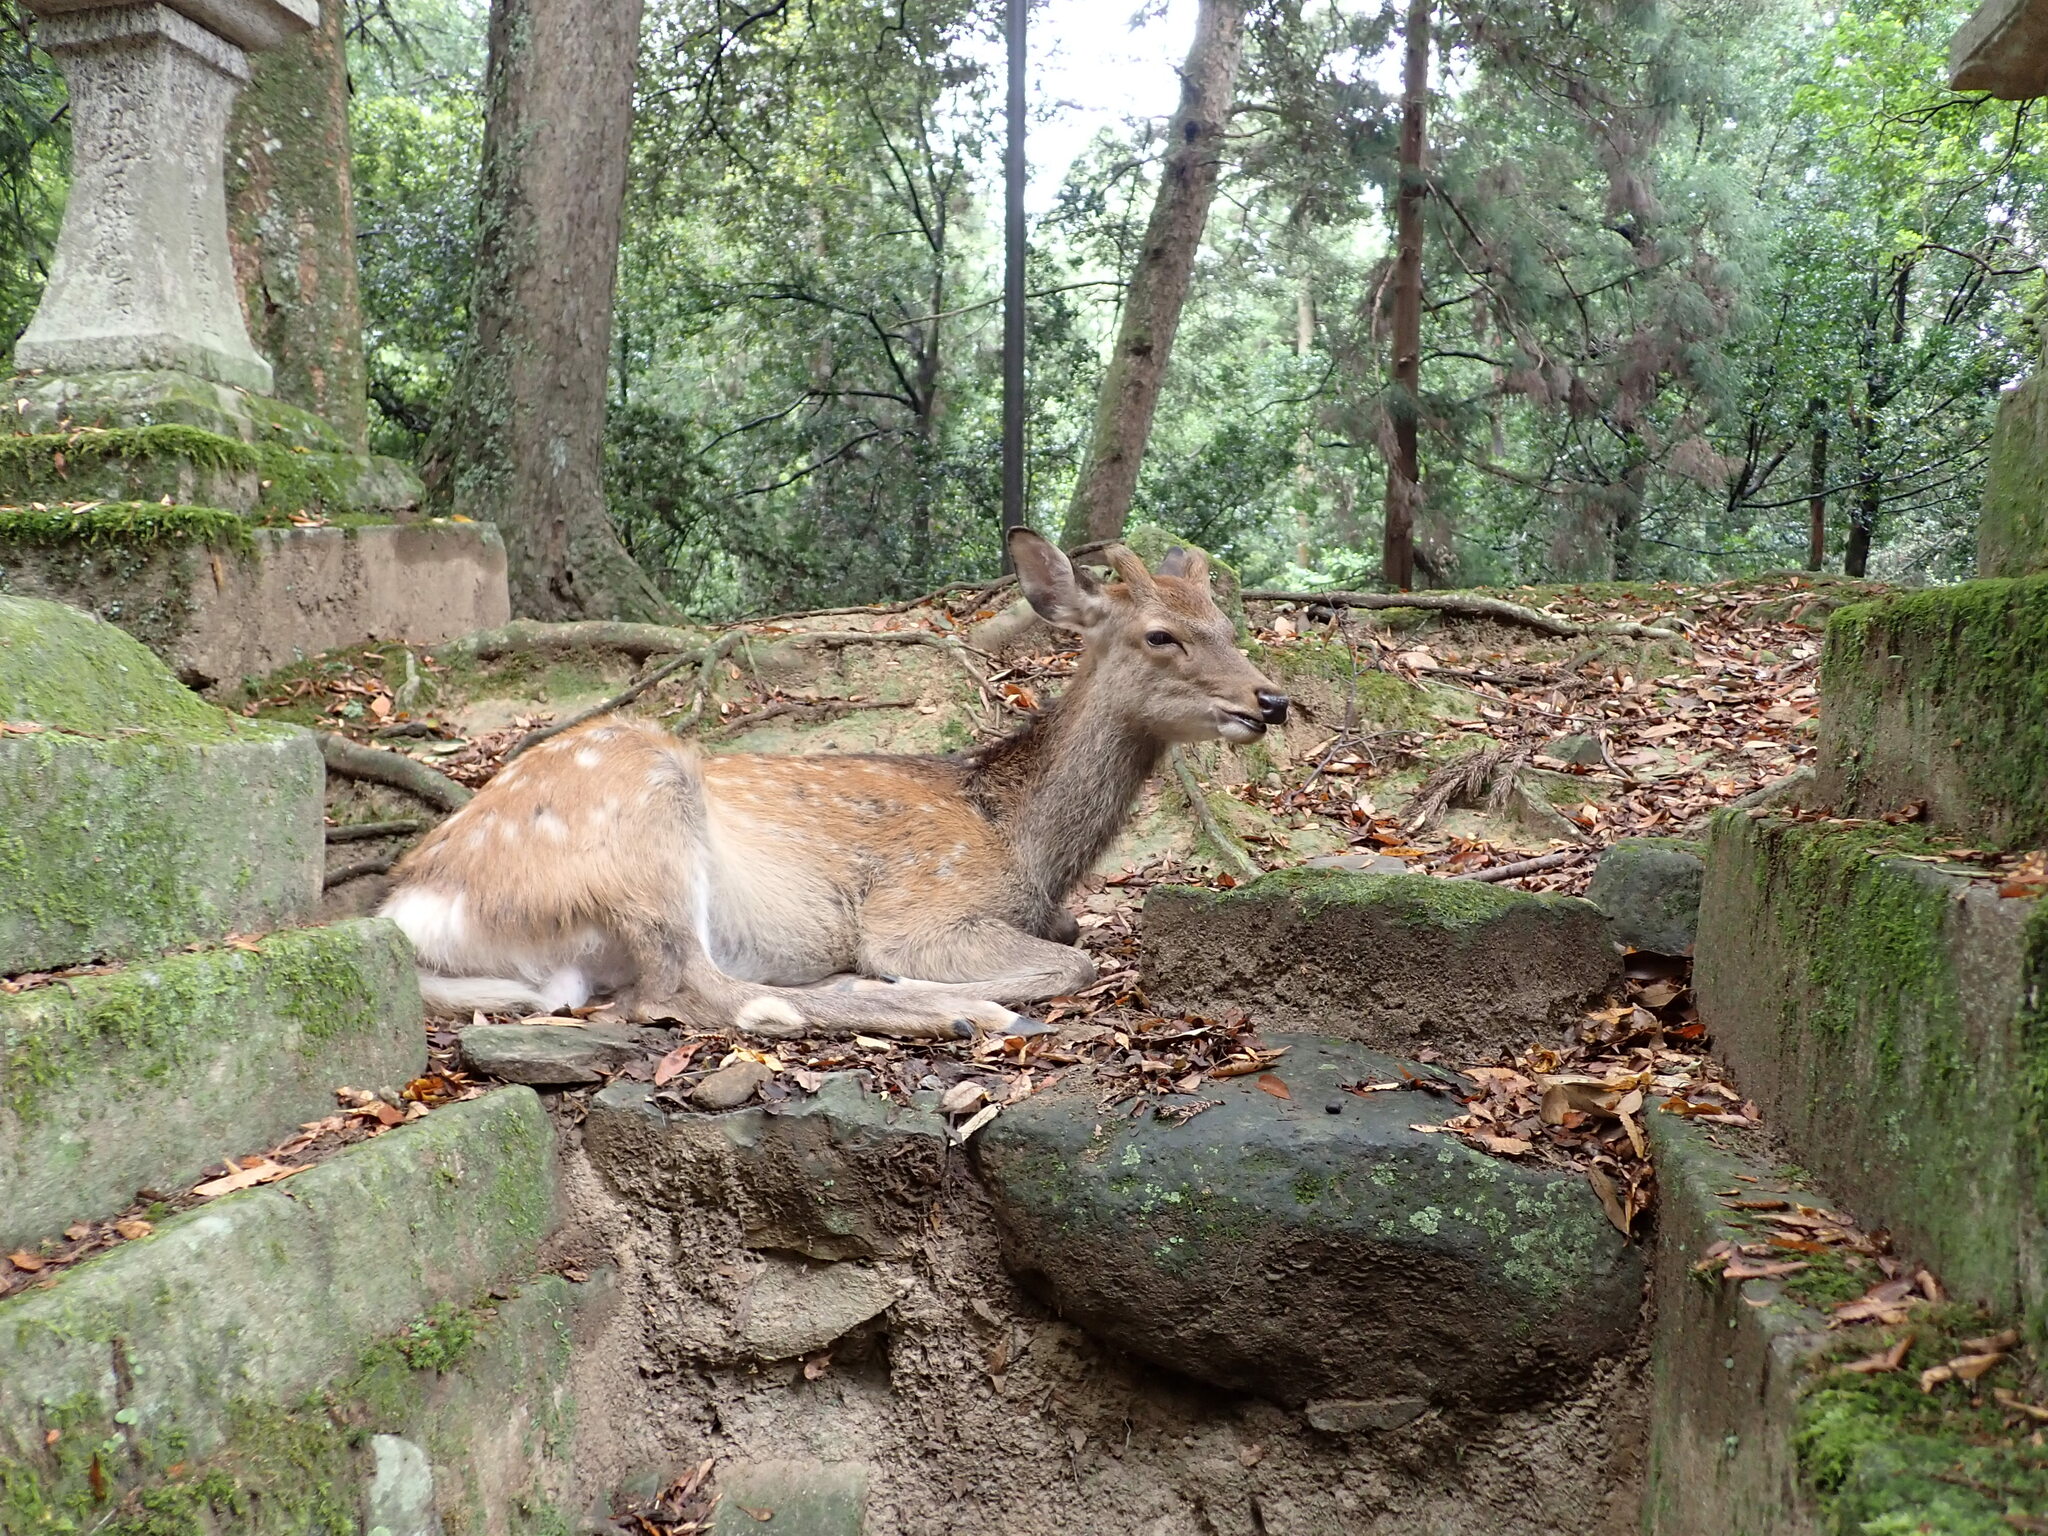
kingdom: Animalia
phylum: Chordata
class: Mammalia
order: Artiodactyla
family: Cervidae
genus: Cervus
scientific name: Cervus nippon
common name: Sika deer
